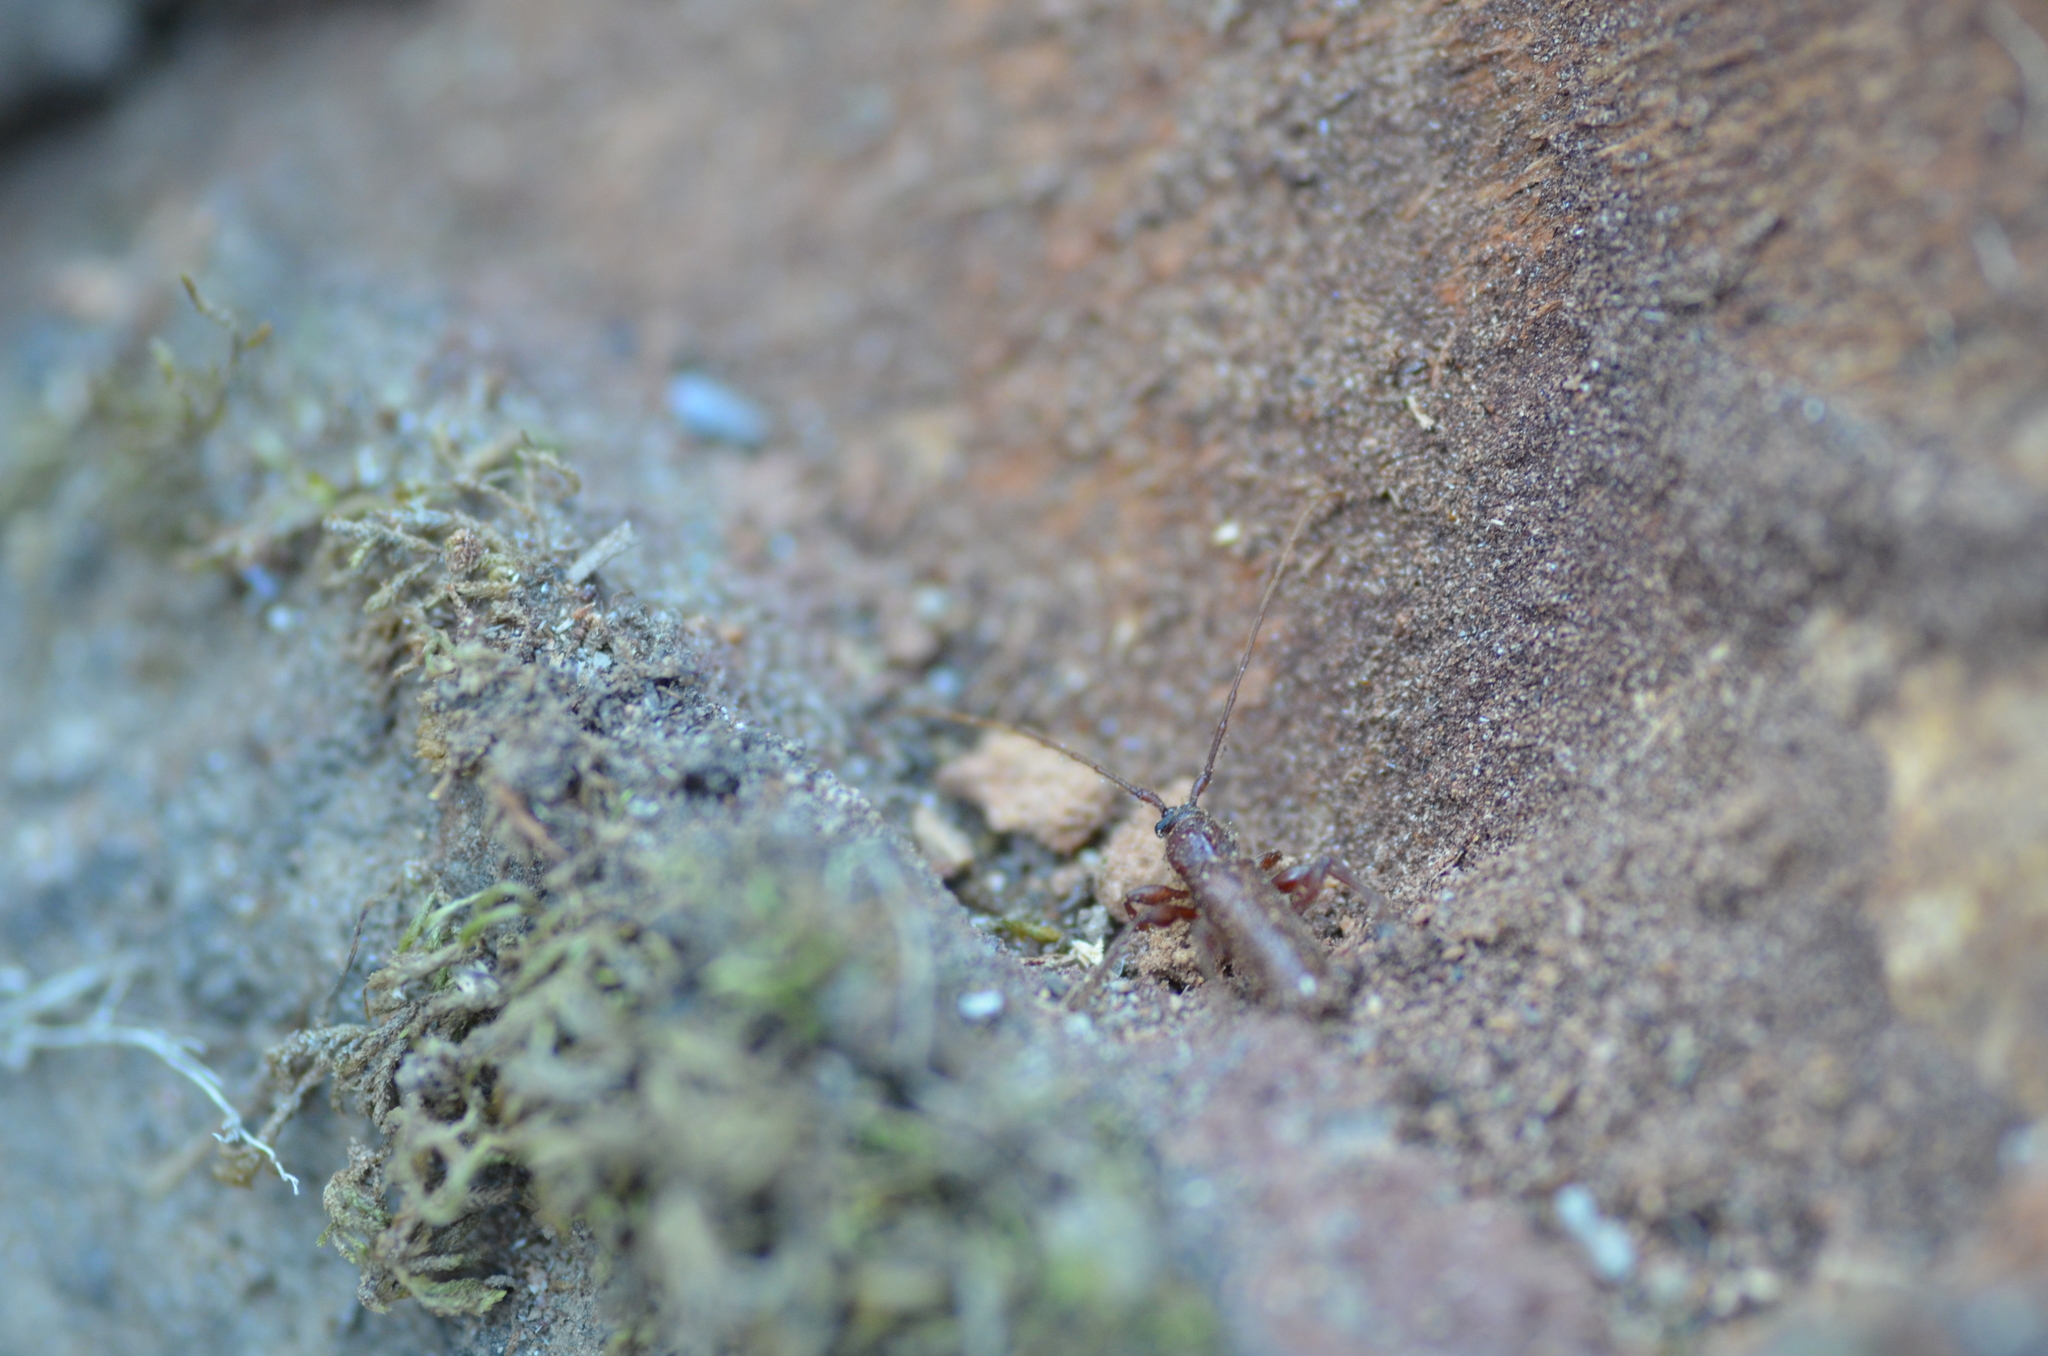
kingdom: Animalia
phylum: Arthropoda
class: Insecta
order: Coleoptera
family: Cerambycidae
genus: Meganoplium
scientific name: Meganoplium imbelle
